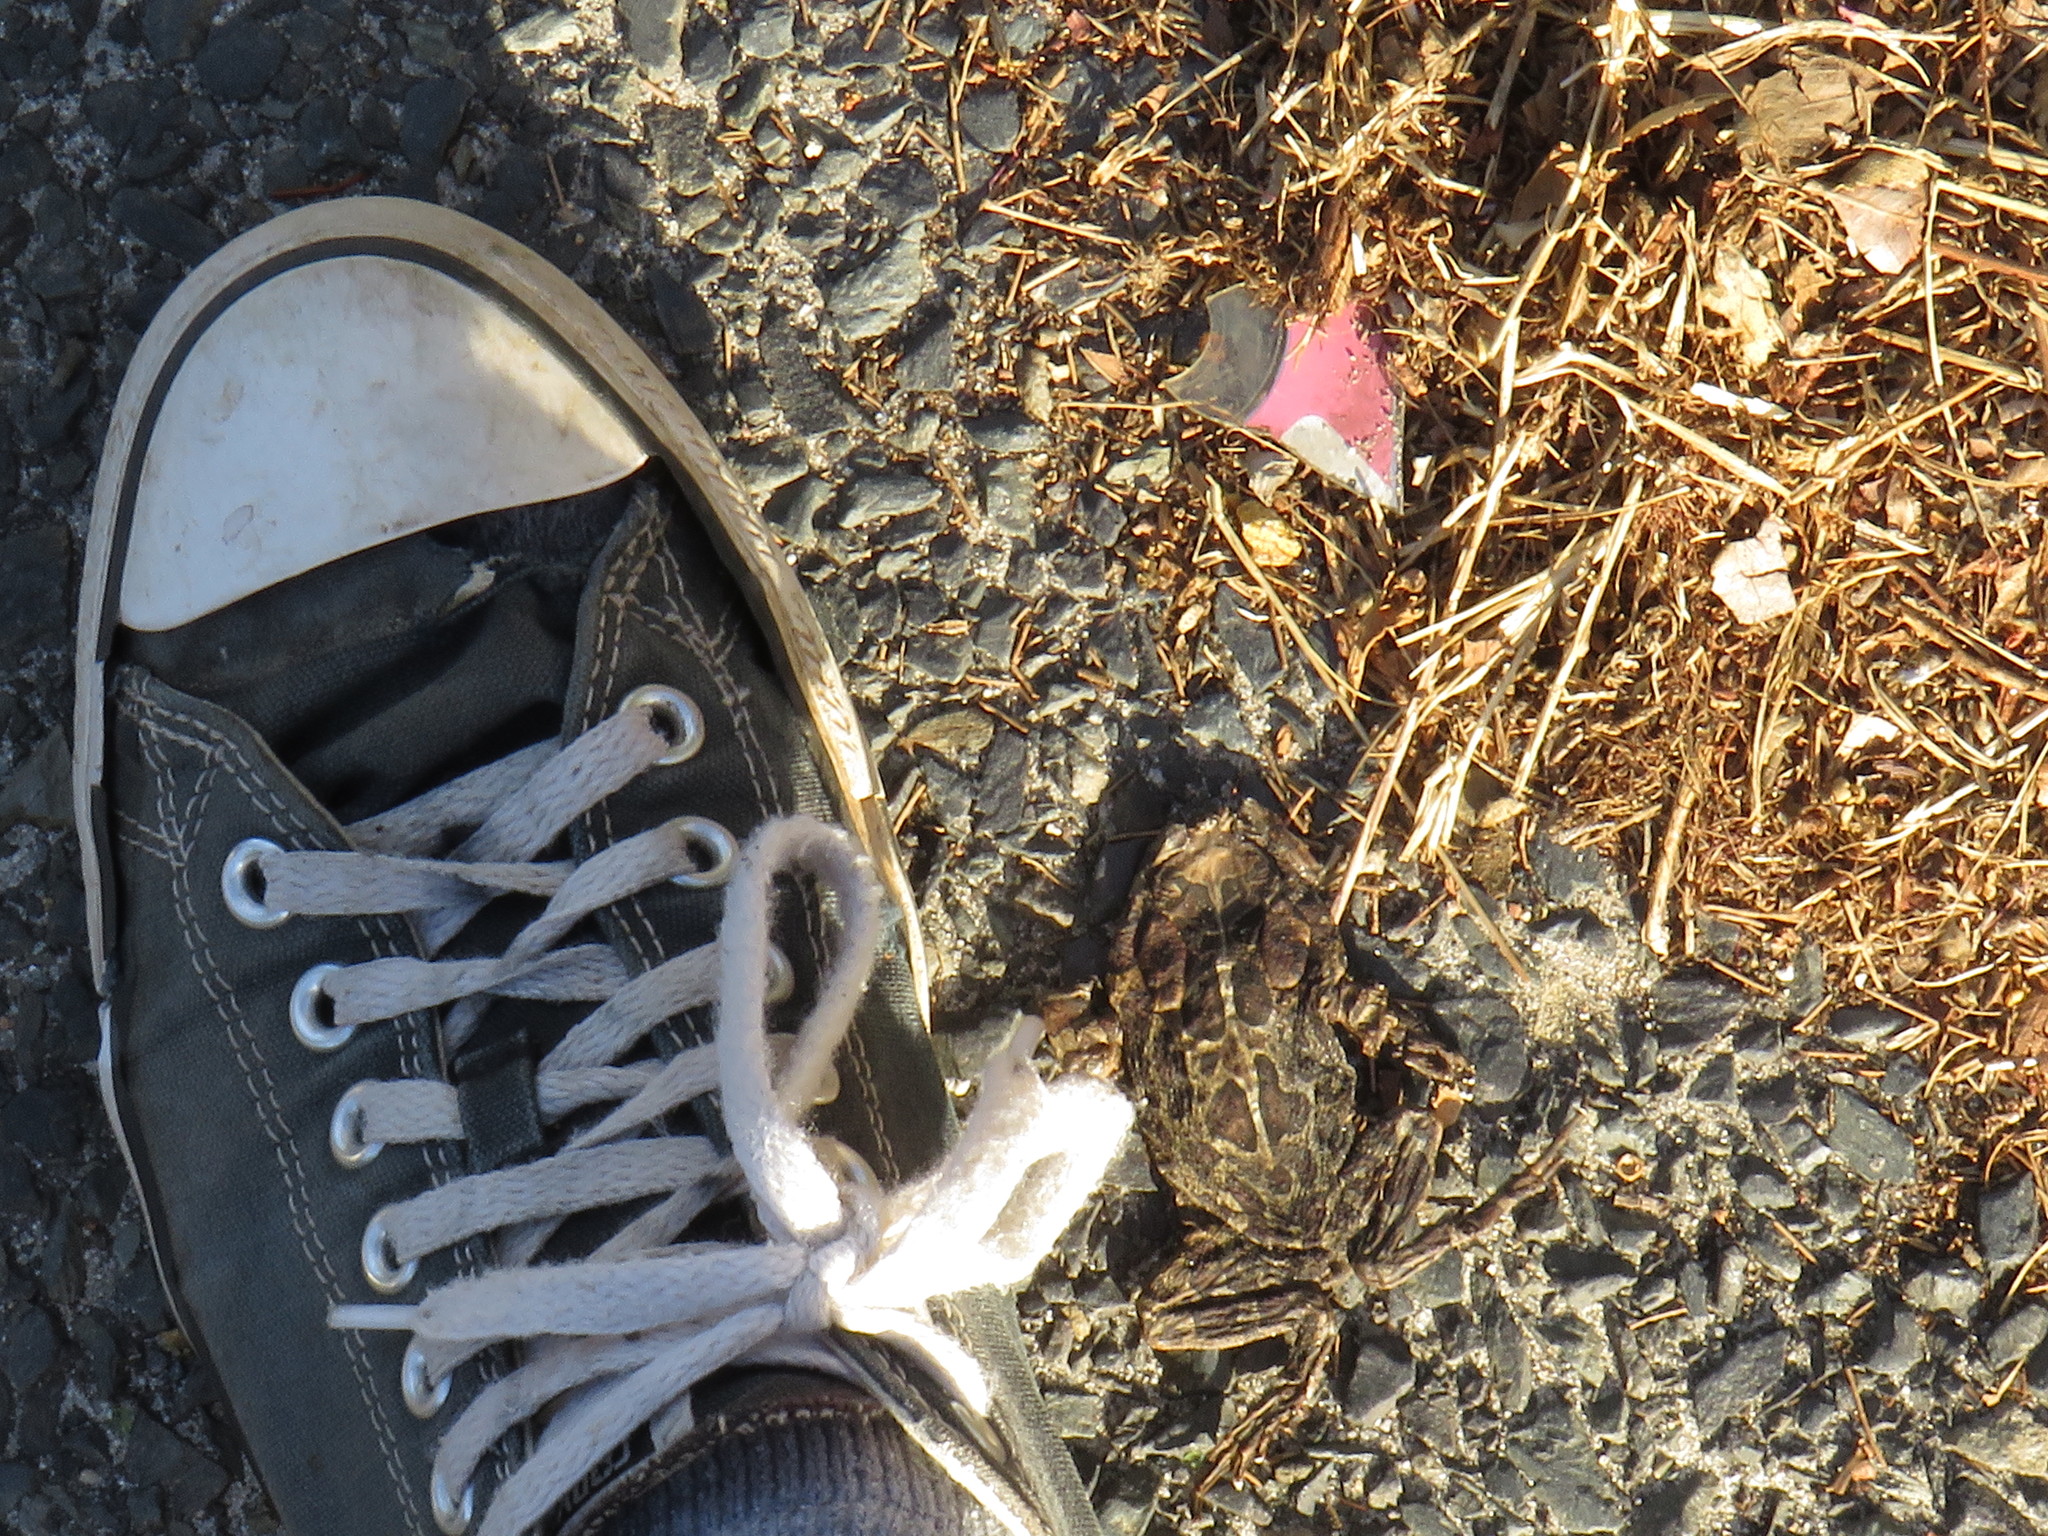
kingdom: Animalia
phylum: Chordata
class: Amphibia
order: Anura
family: Bufonidae
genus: Sclerophrys
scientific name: Sclerophrys pantherina
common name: Panther toad
